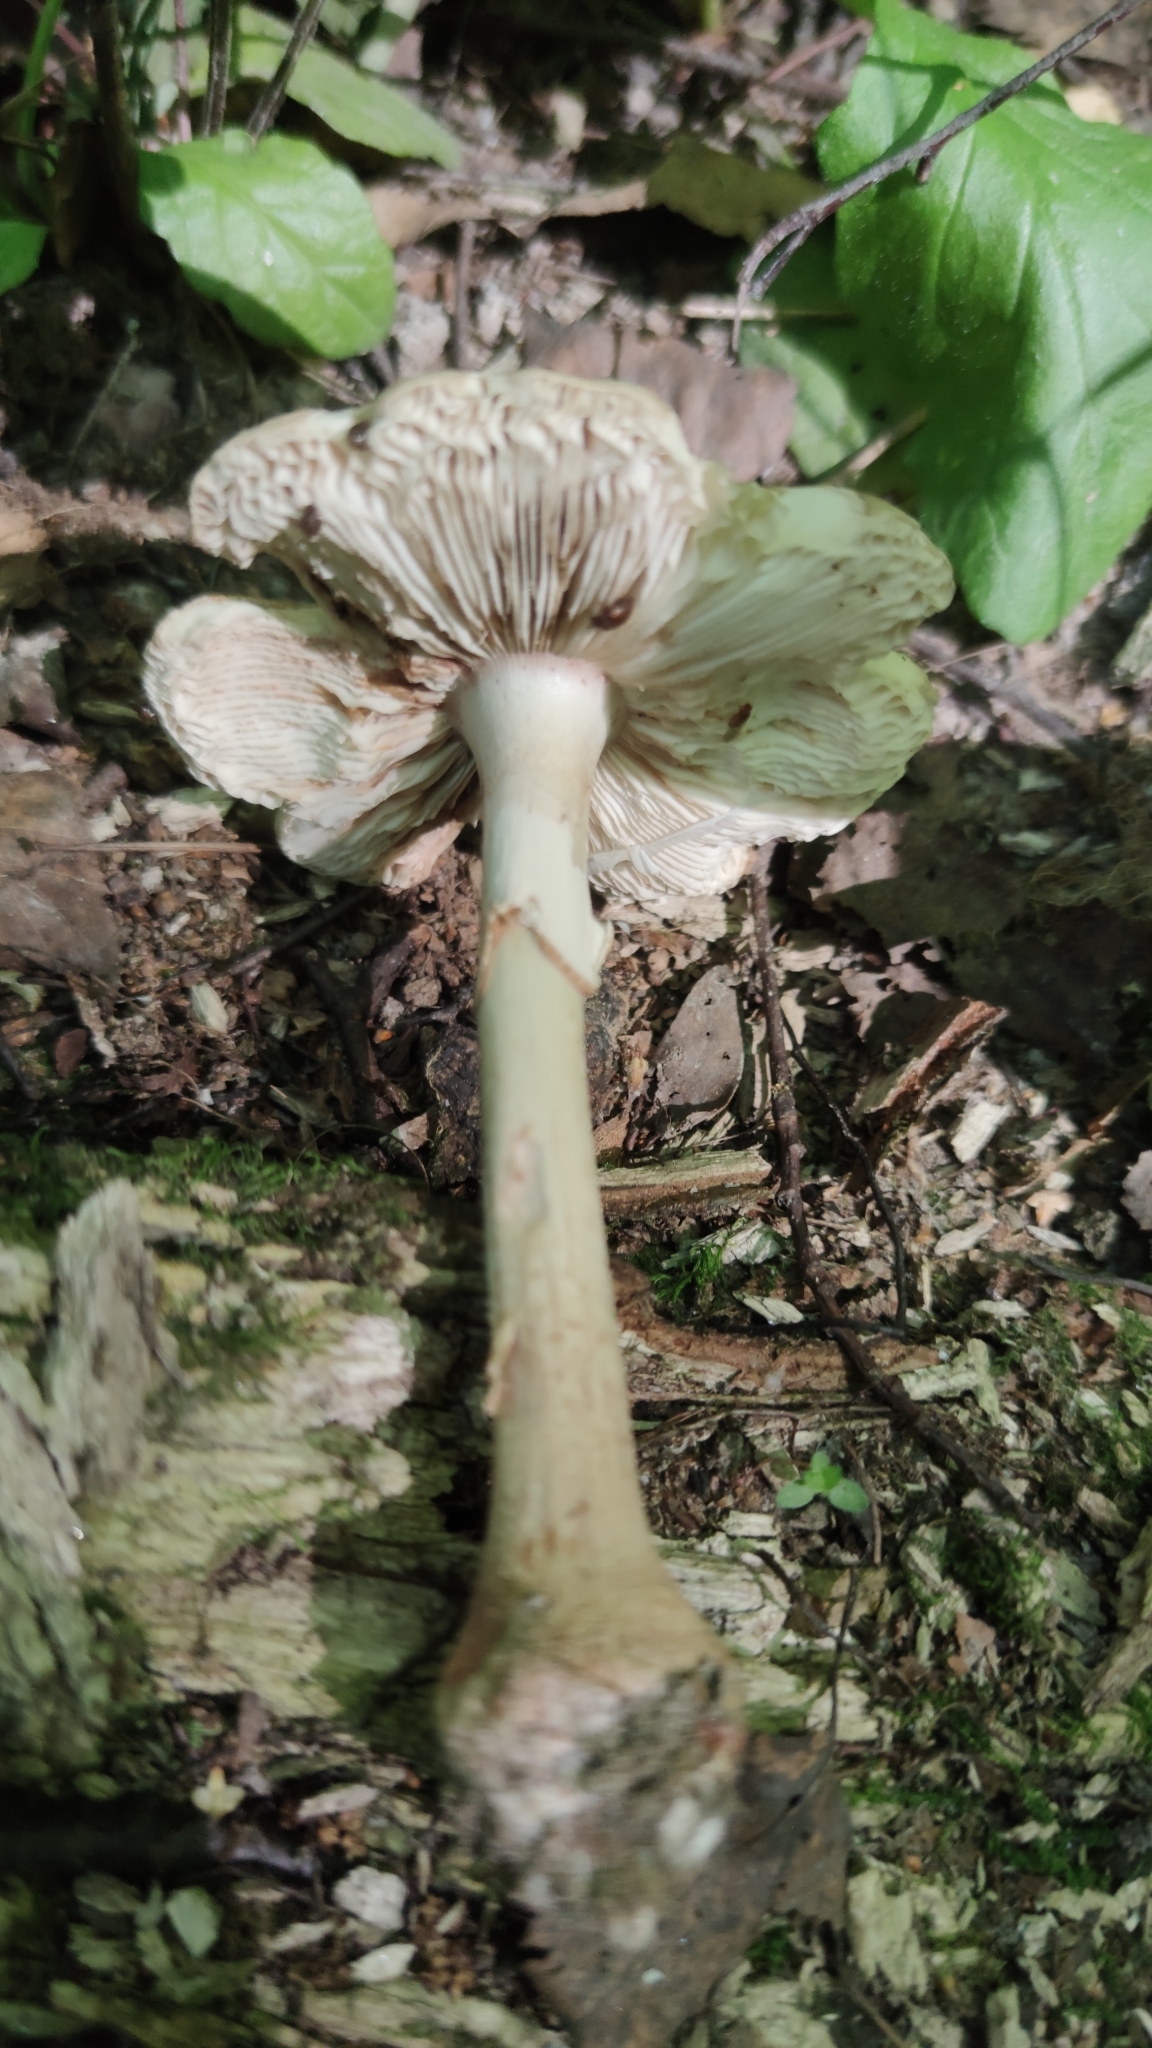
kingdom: Fungi
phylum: Basidiomycota
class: Agaricomycetes
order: Agaricales
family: Amanitaceae
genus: Amanita
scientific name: Amanita rubescens
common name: Blusher
